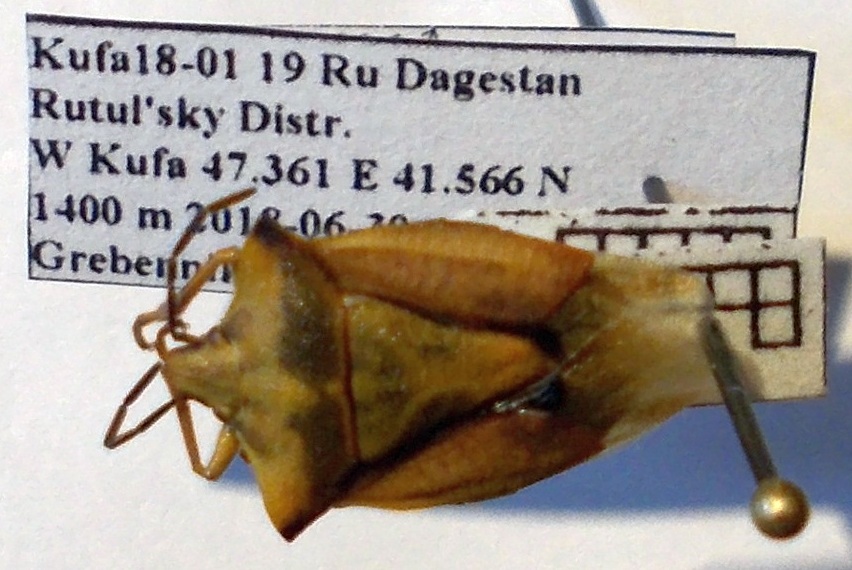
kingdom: Animalia
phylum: Arthropoda
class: Insecta
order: Hemiptera
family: Pentatomidae
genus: Carpocoris
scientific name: Carpocoris fuscispinus
